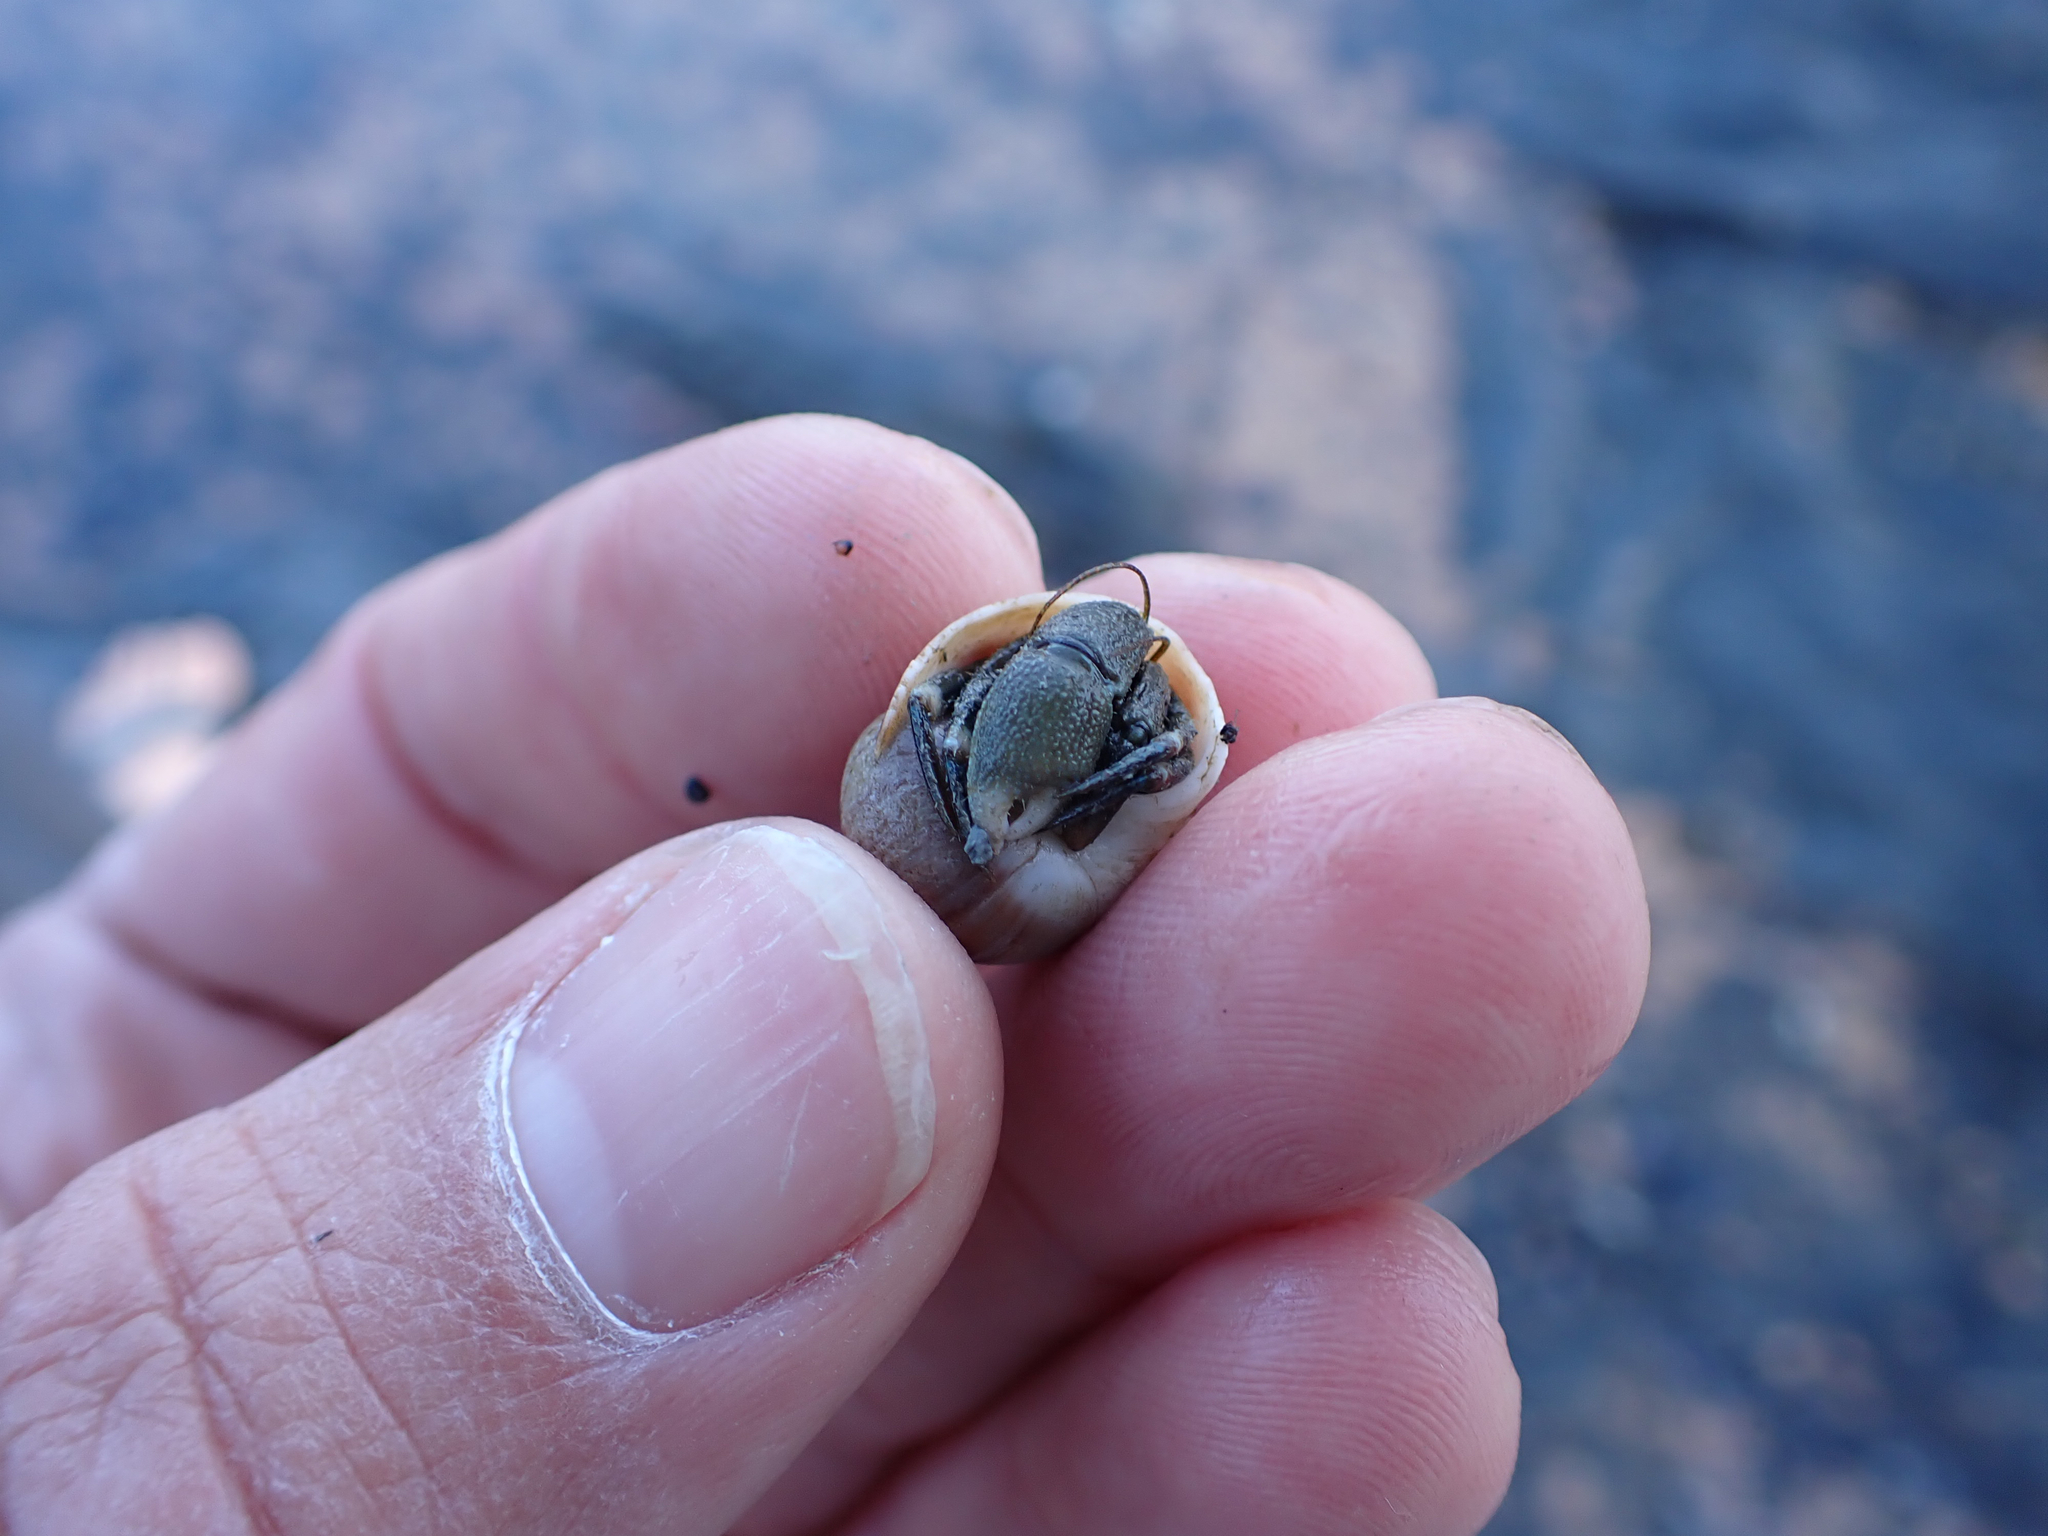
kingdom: Animalia
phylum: Arthropoda
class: Malacostraca
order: Decapoda
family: Paguridae
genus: Pagurus
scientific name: Pagurus hirsutiusculus
